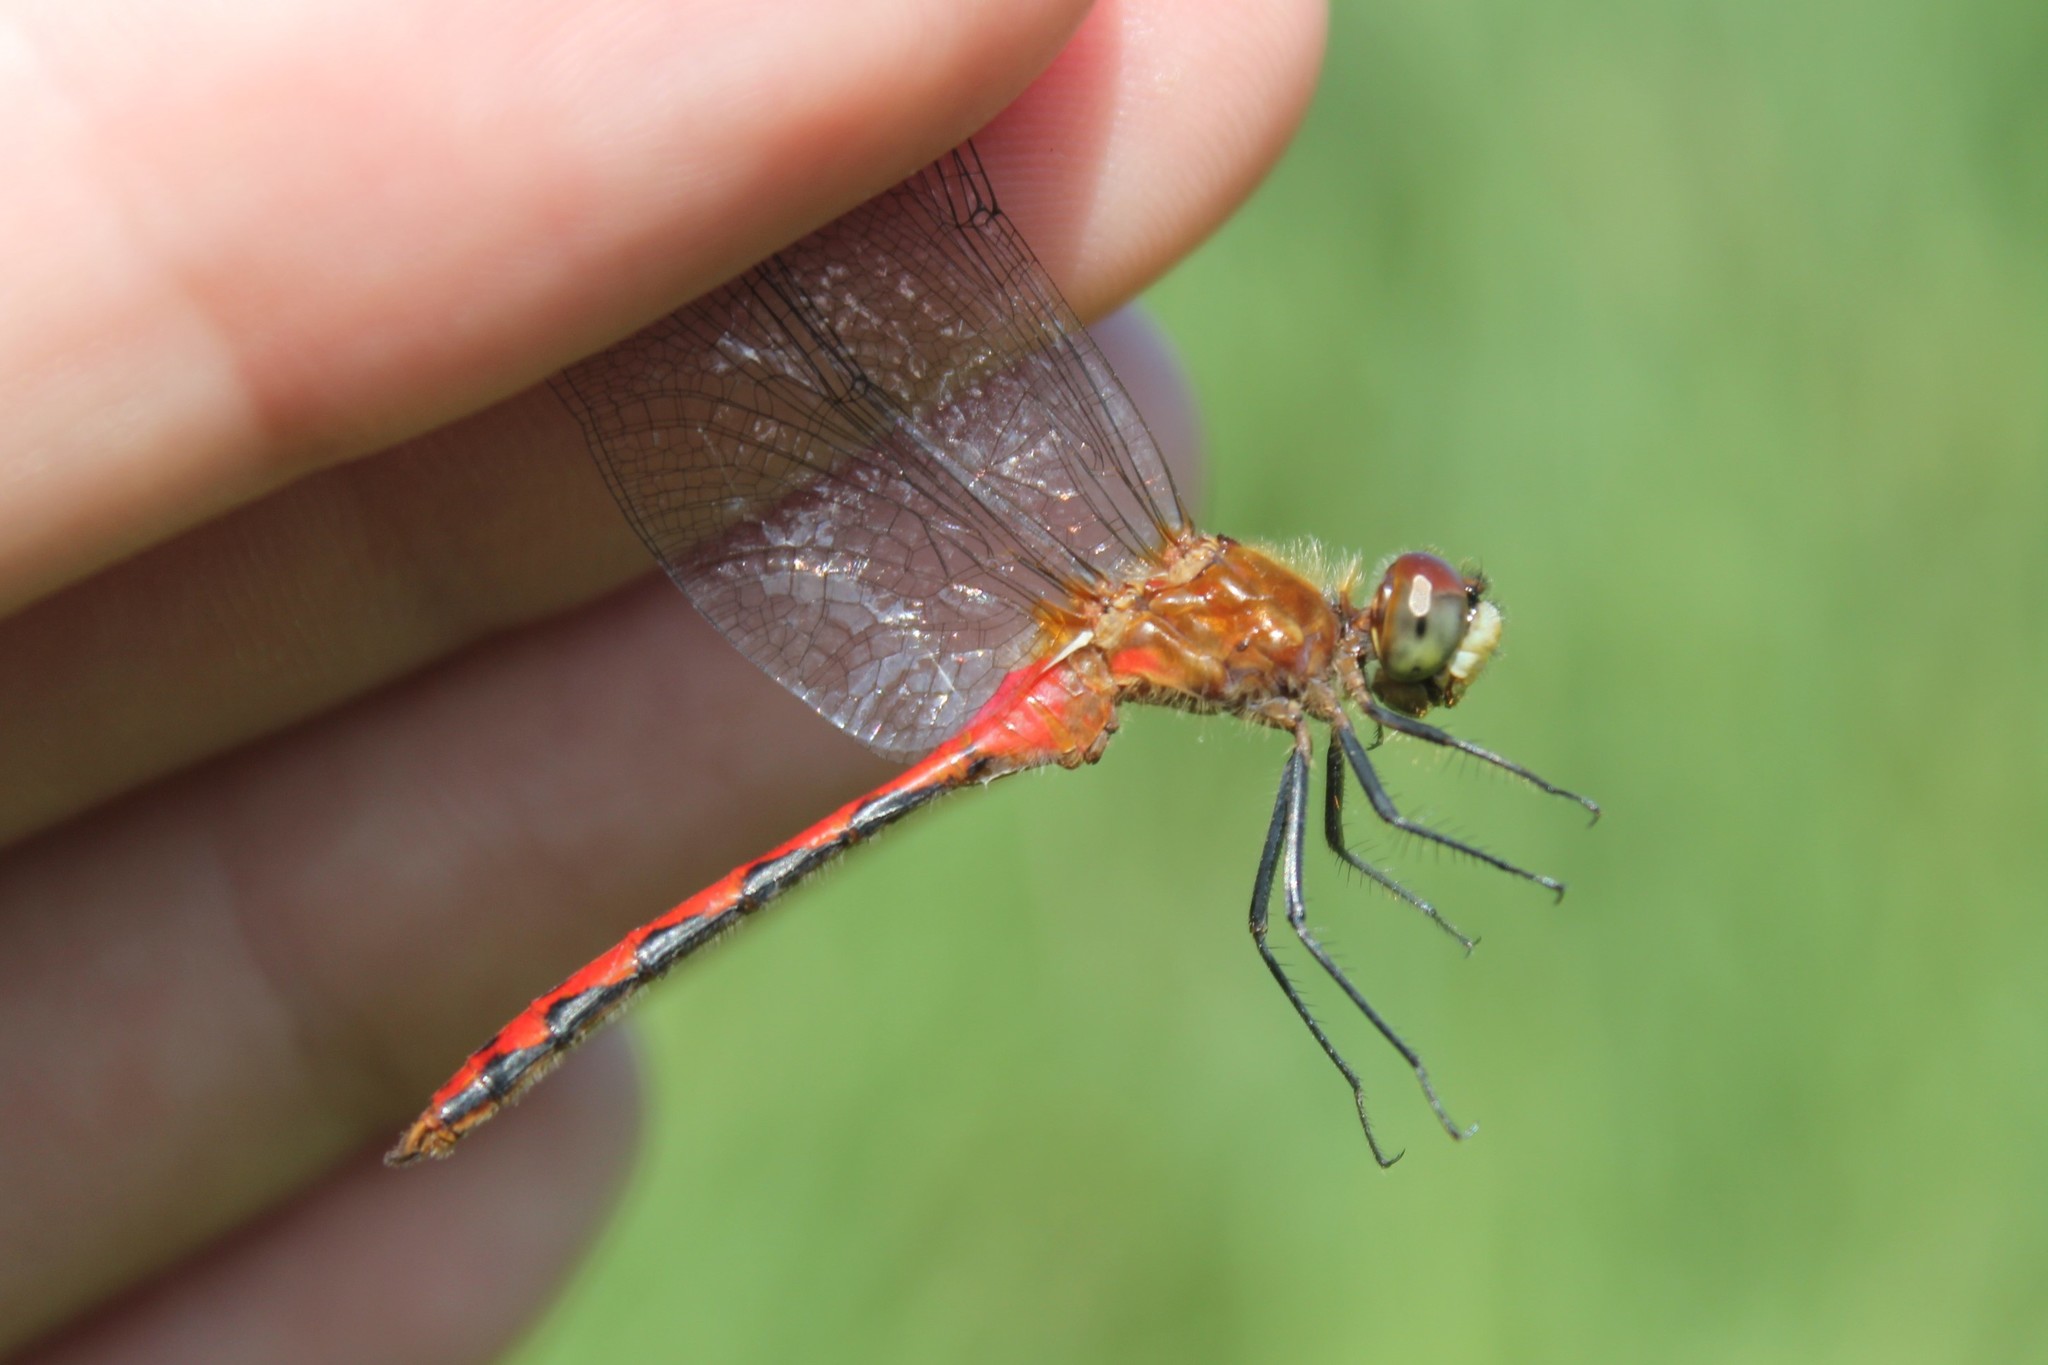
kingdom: Animalia
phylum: Arthropoda
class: Insecta
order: Odonata
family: Libellulidae
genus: Sympetrum
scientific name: Sympetrum obtrusum
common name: White-faced meadowhawk
